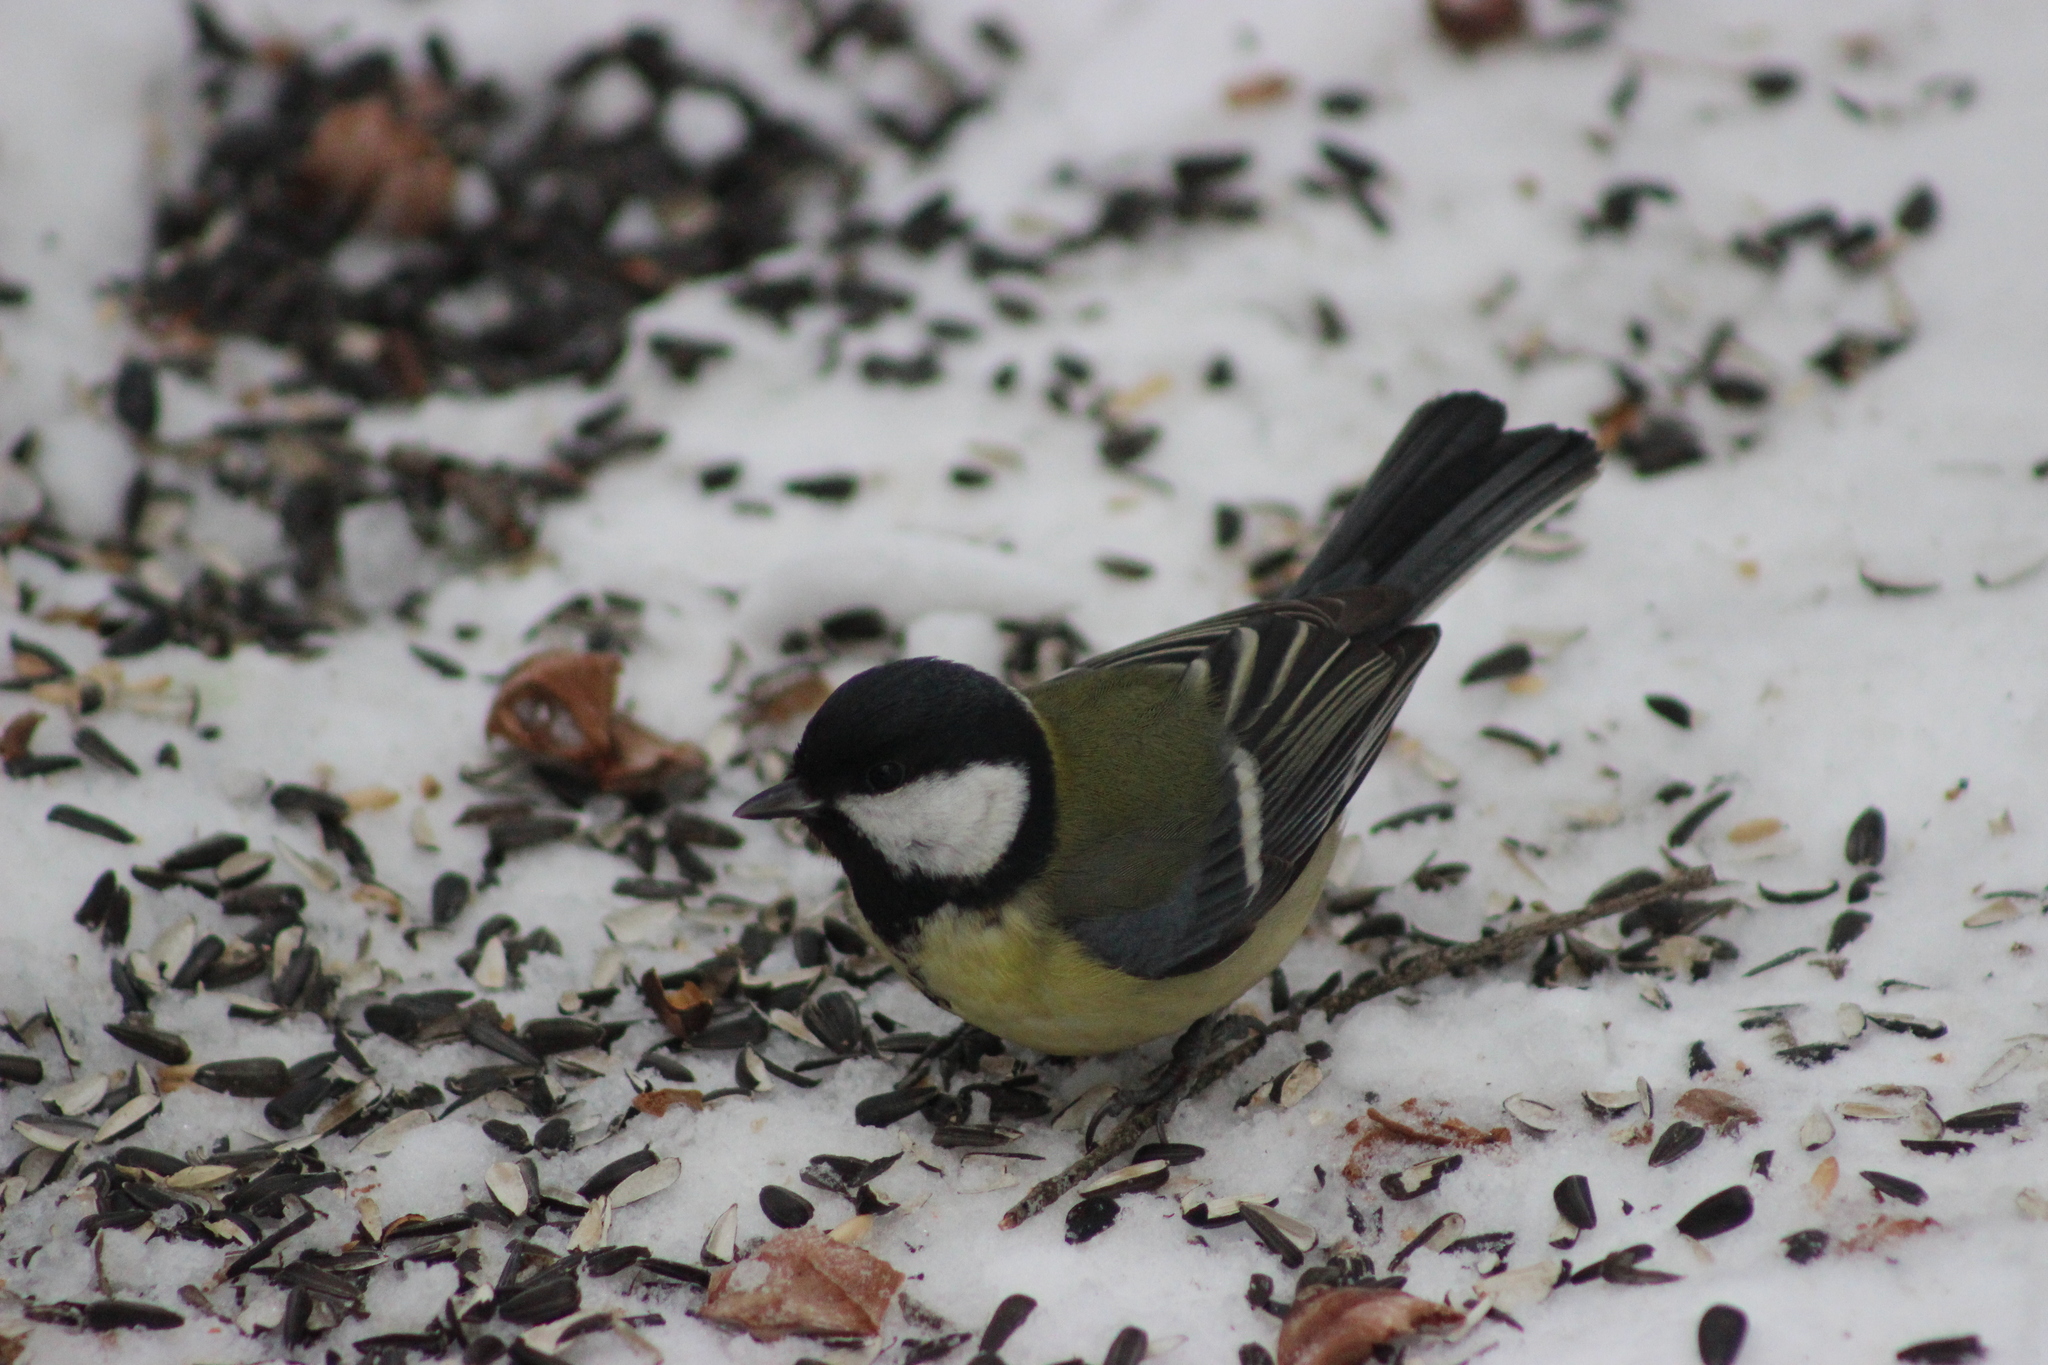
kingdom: Animalia
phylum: Chordata
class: Aves
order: Passeriformes
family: Paridae
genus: Parus
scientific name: Parus major
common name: Great tit
